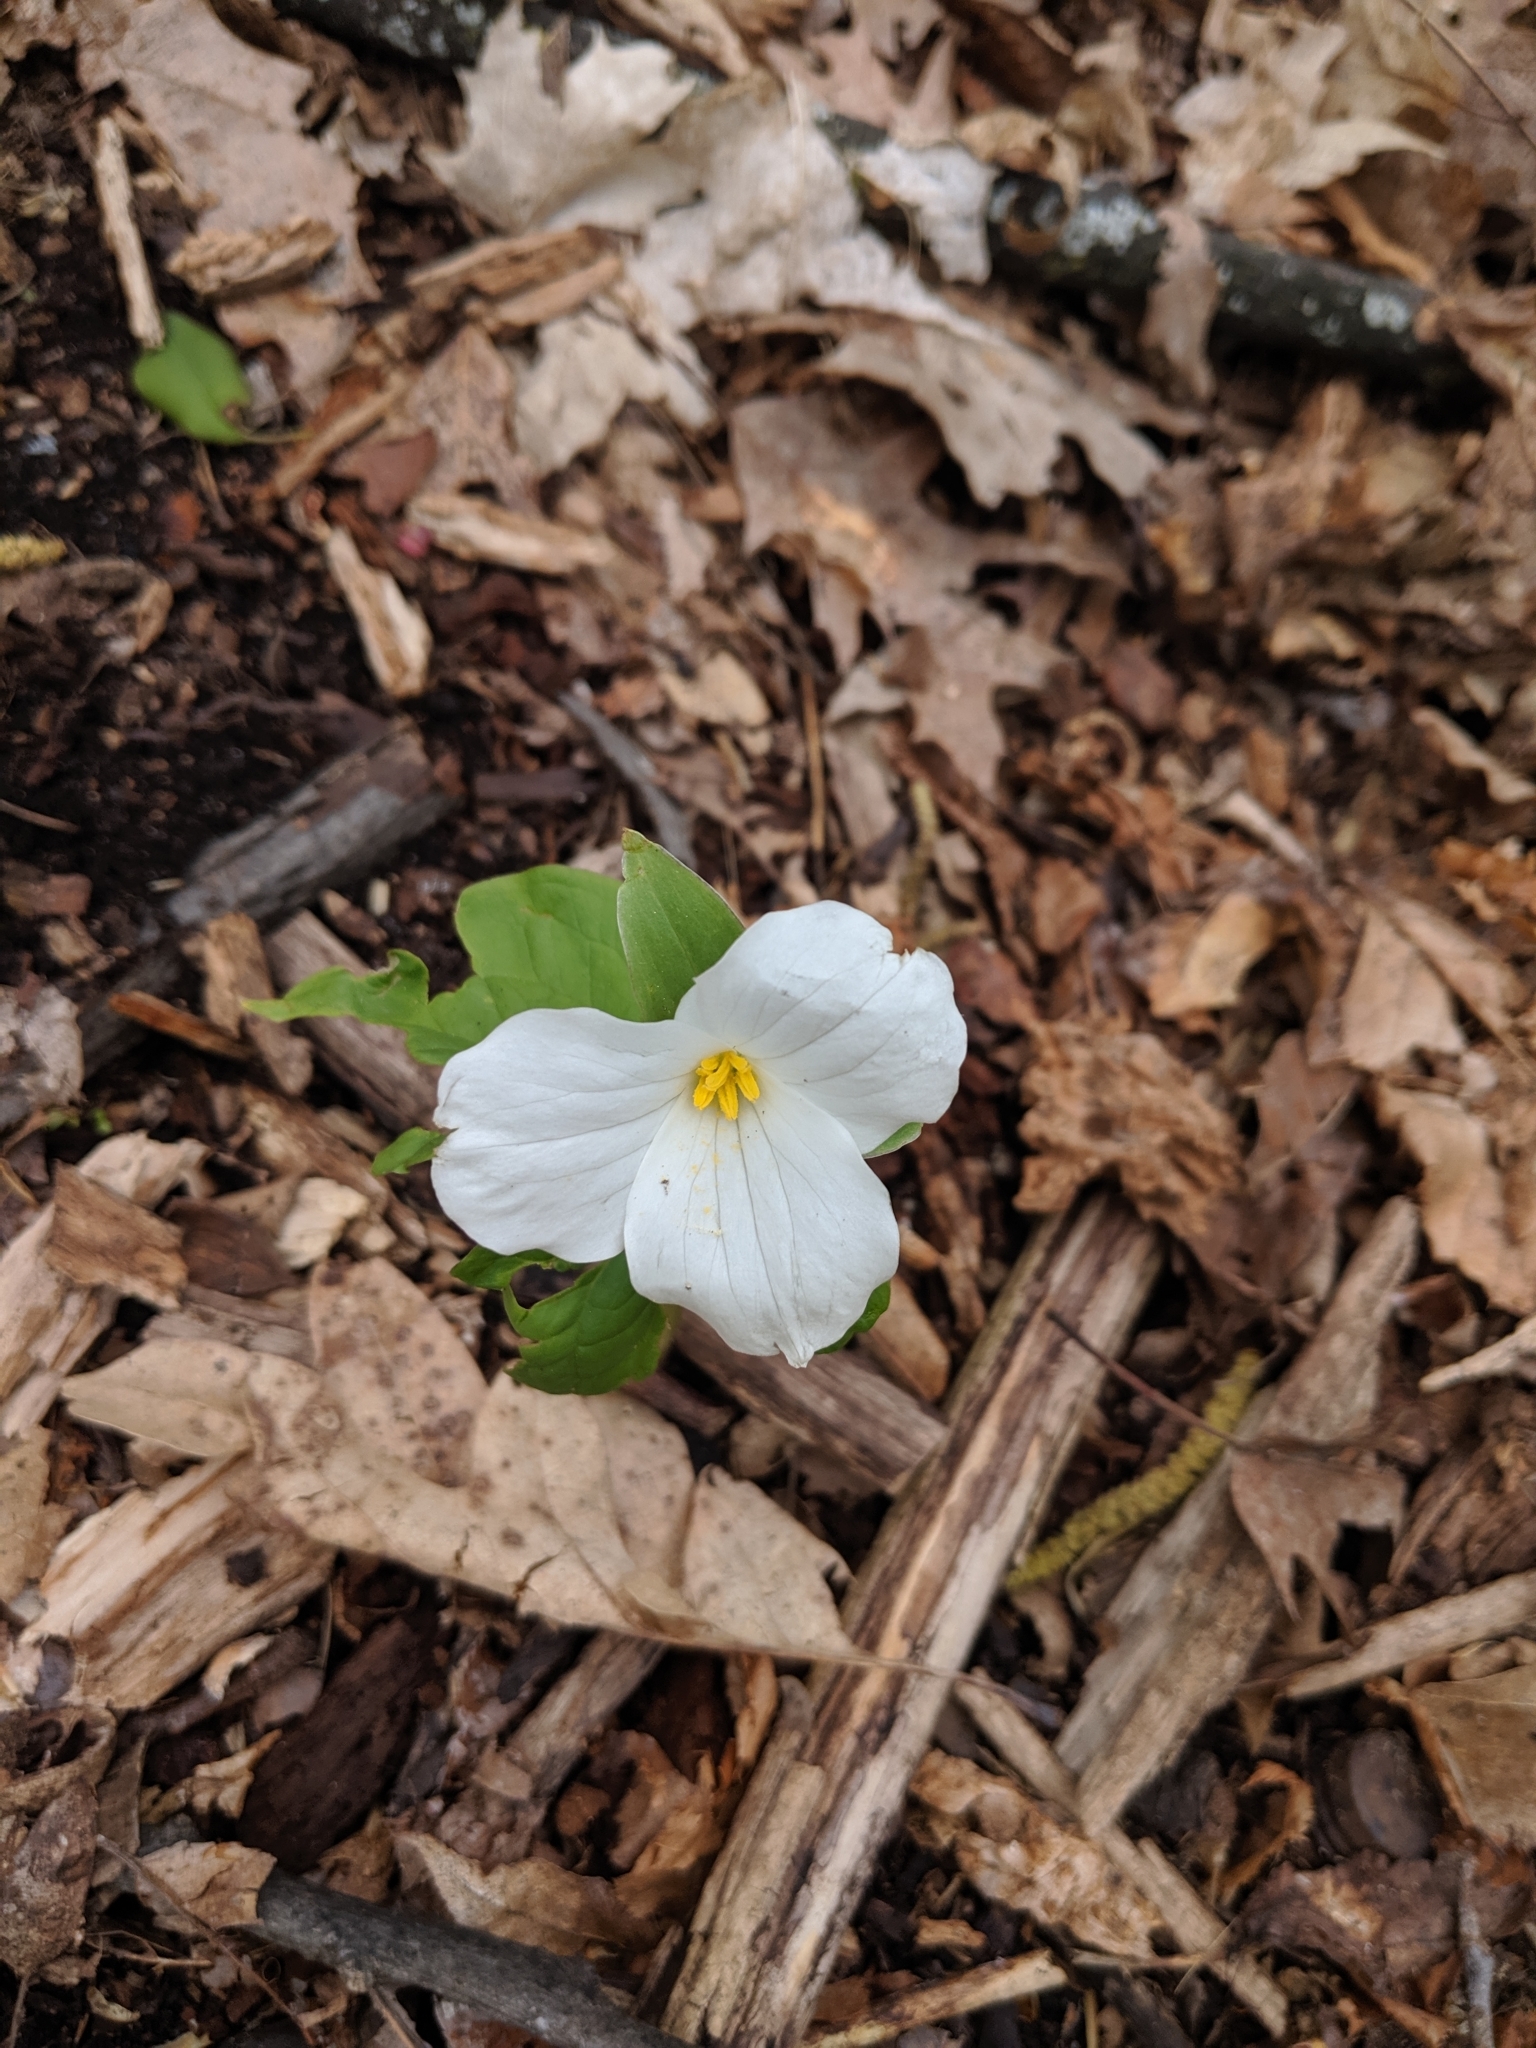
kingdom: Plantae
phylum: Tracheophyta
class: Liliopsida
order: Liliales
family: Melanthiaceae
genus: Trillium
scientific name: Trillium grandiflorum
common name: Great white trillium
